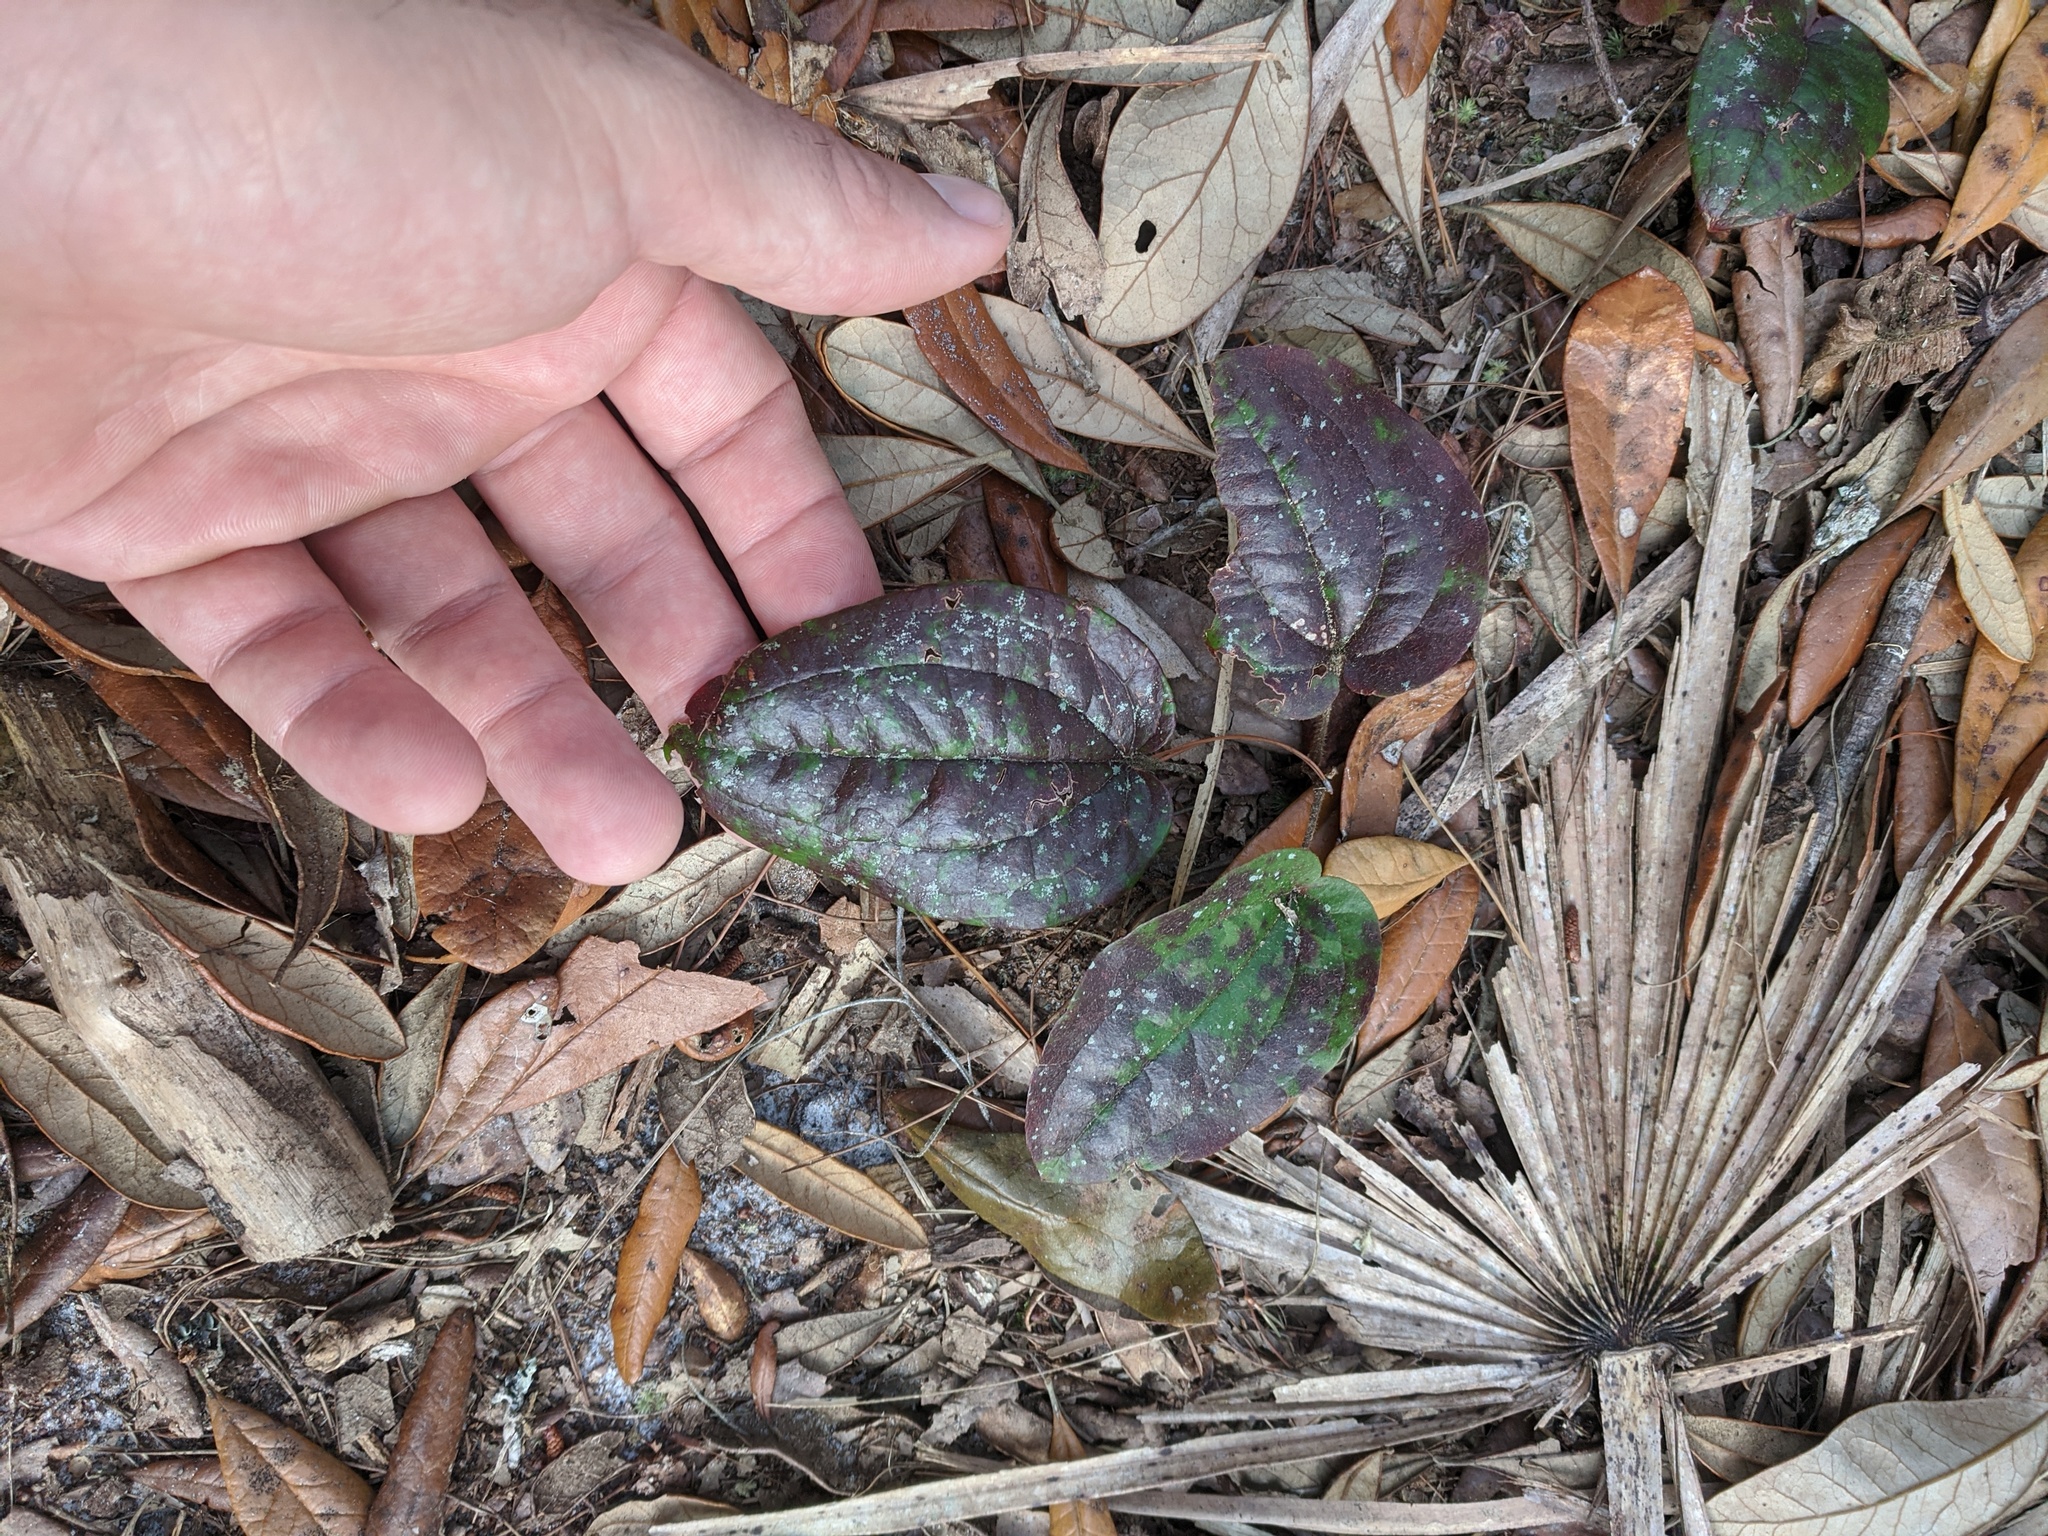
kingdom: Plantae
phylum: Tracheophyta
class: Liliopsida
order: Liliales
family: Smilacaceae
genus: Smilax
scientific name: Smilax pumila
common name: Sarsaparilla-vine
